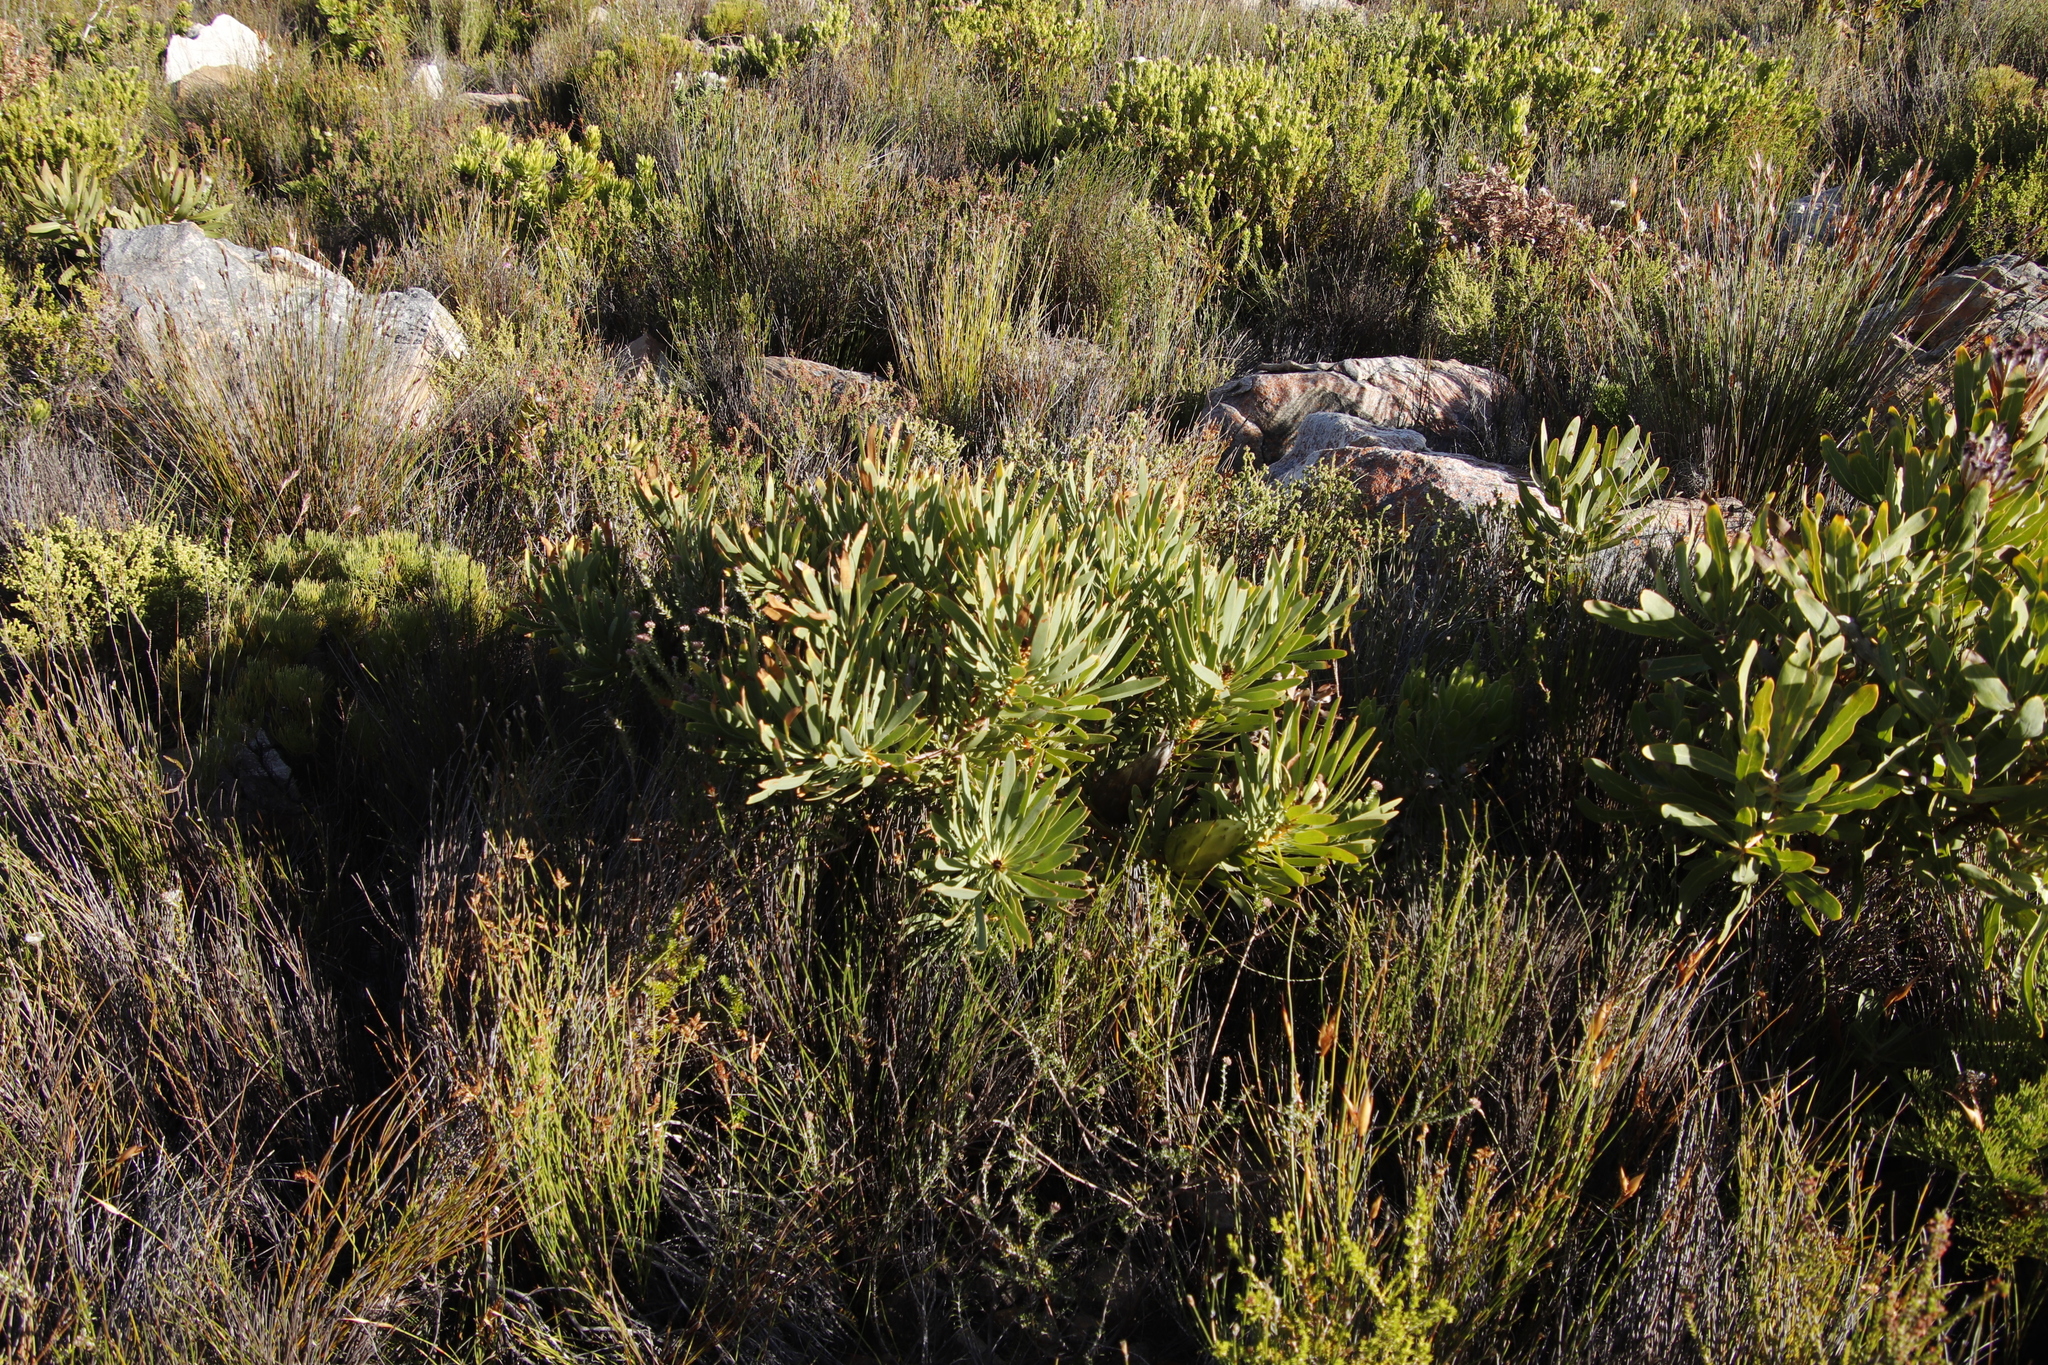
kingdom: Plantae
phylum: Tracheophyta
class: Magnoliopsida
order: Proteales
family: Proteaceae
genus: Protea
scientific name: Protea laurifolia
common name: Grey-leaf sugarbsh
